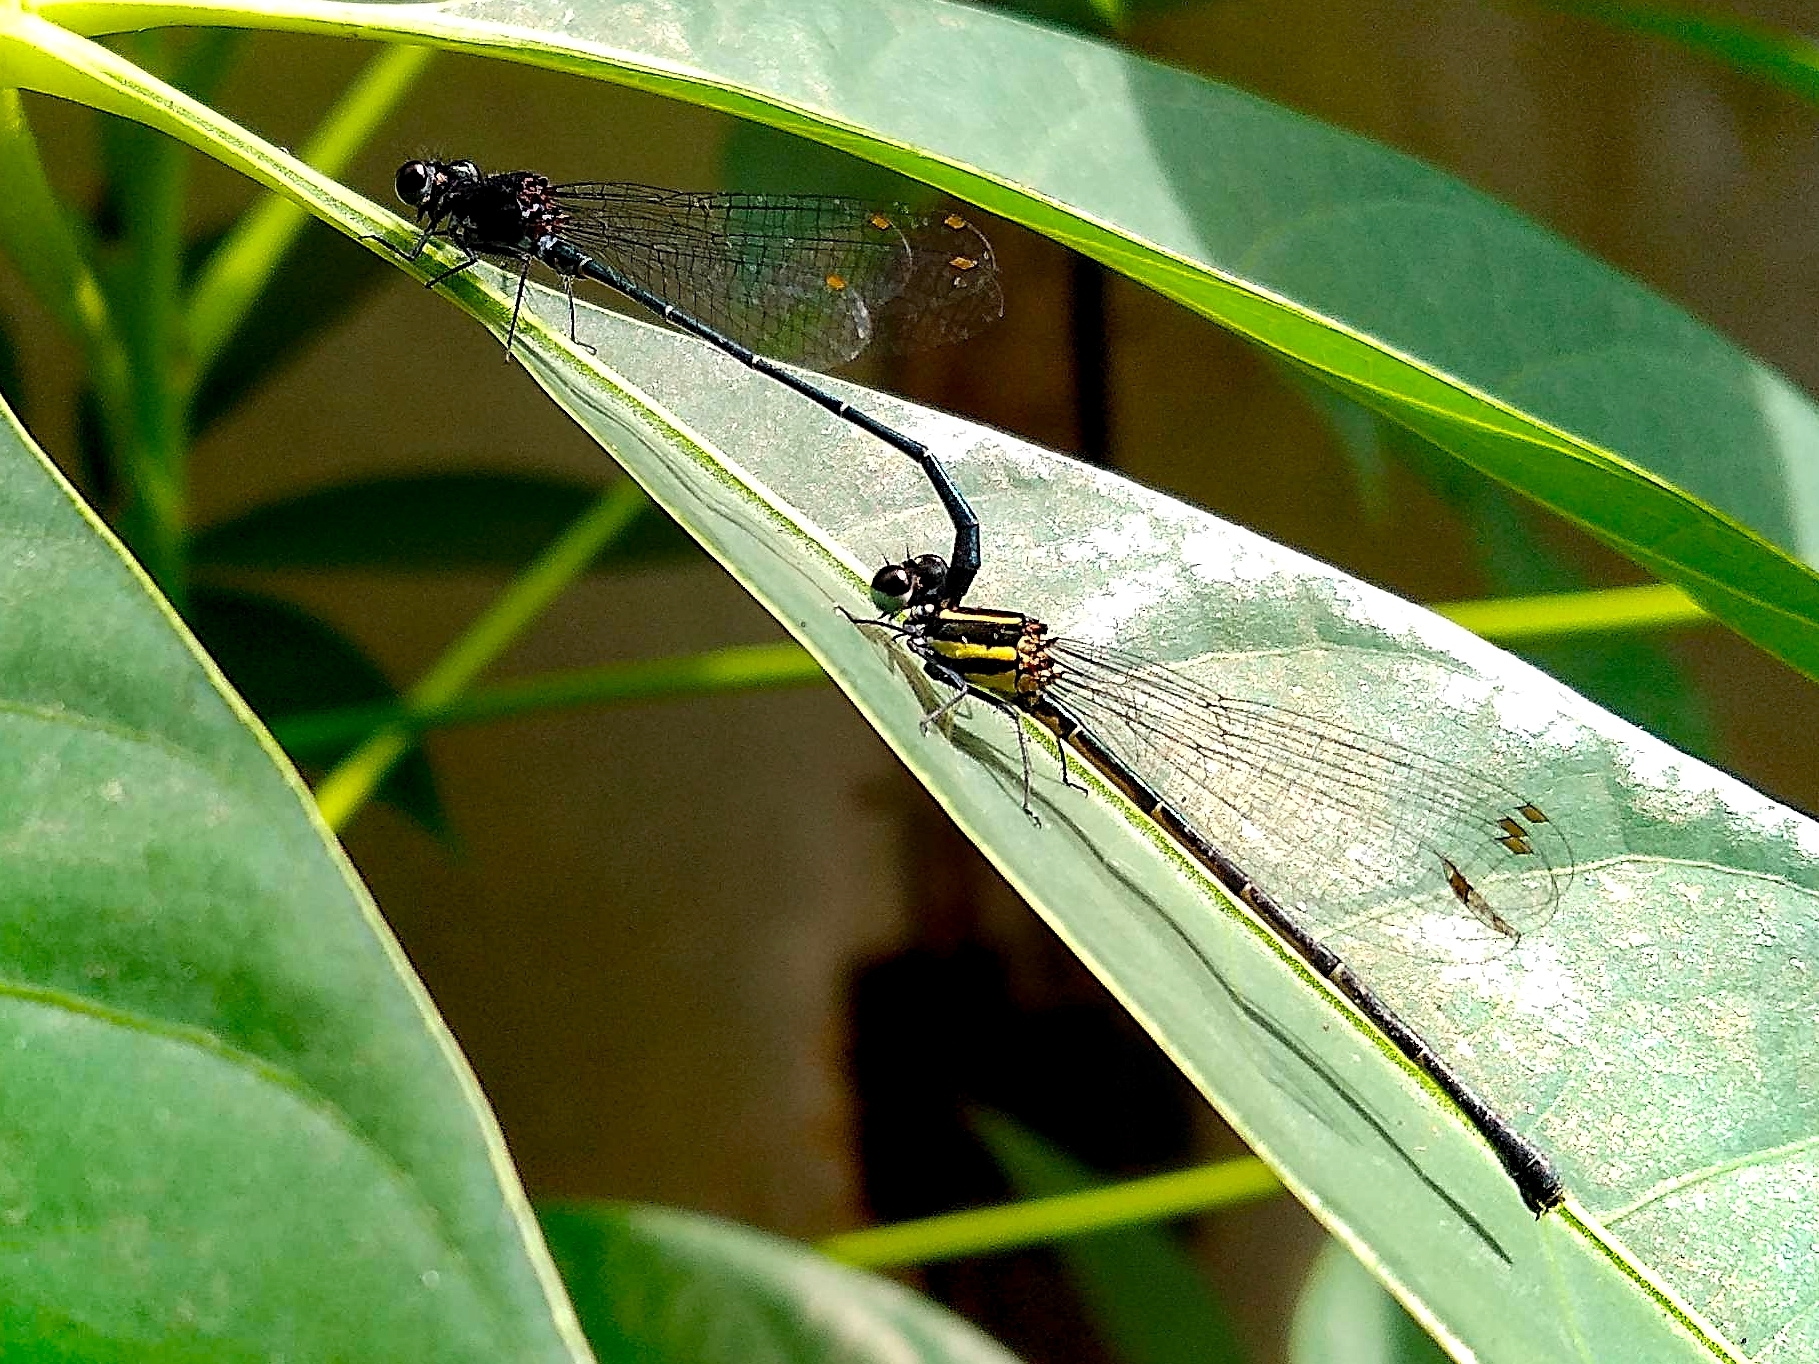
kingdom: Animalia
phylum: Arthropoda
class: Insecta
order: Odonata
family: Platycnemididae
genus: Onychargia
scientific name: Onychargia atrocyana
